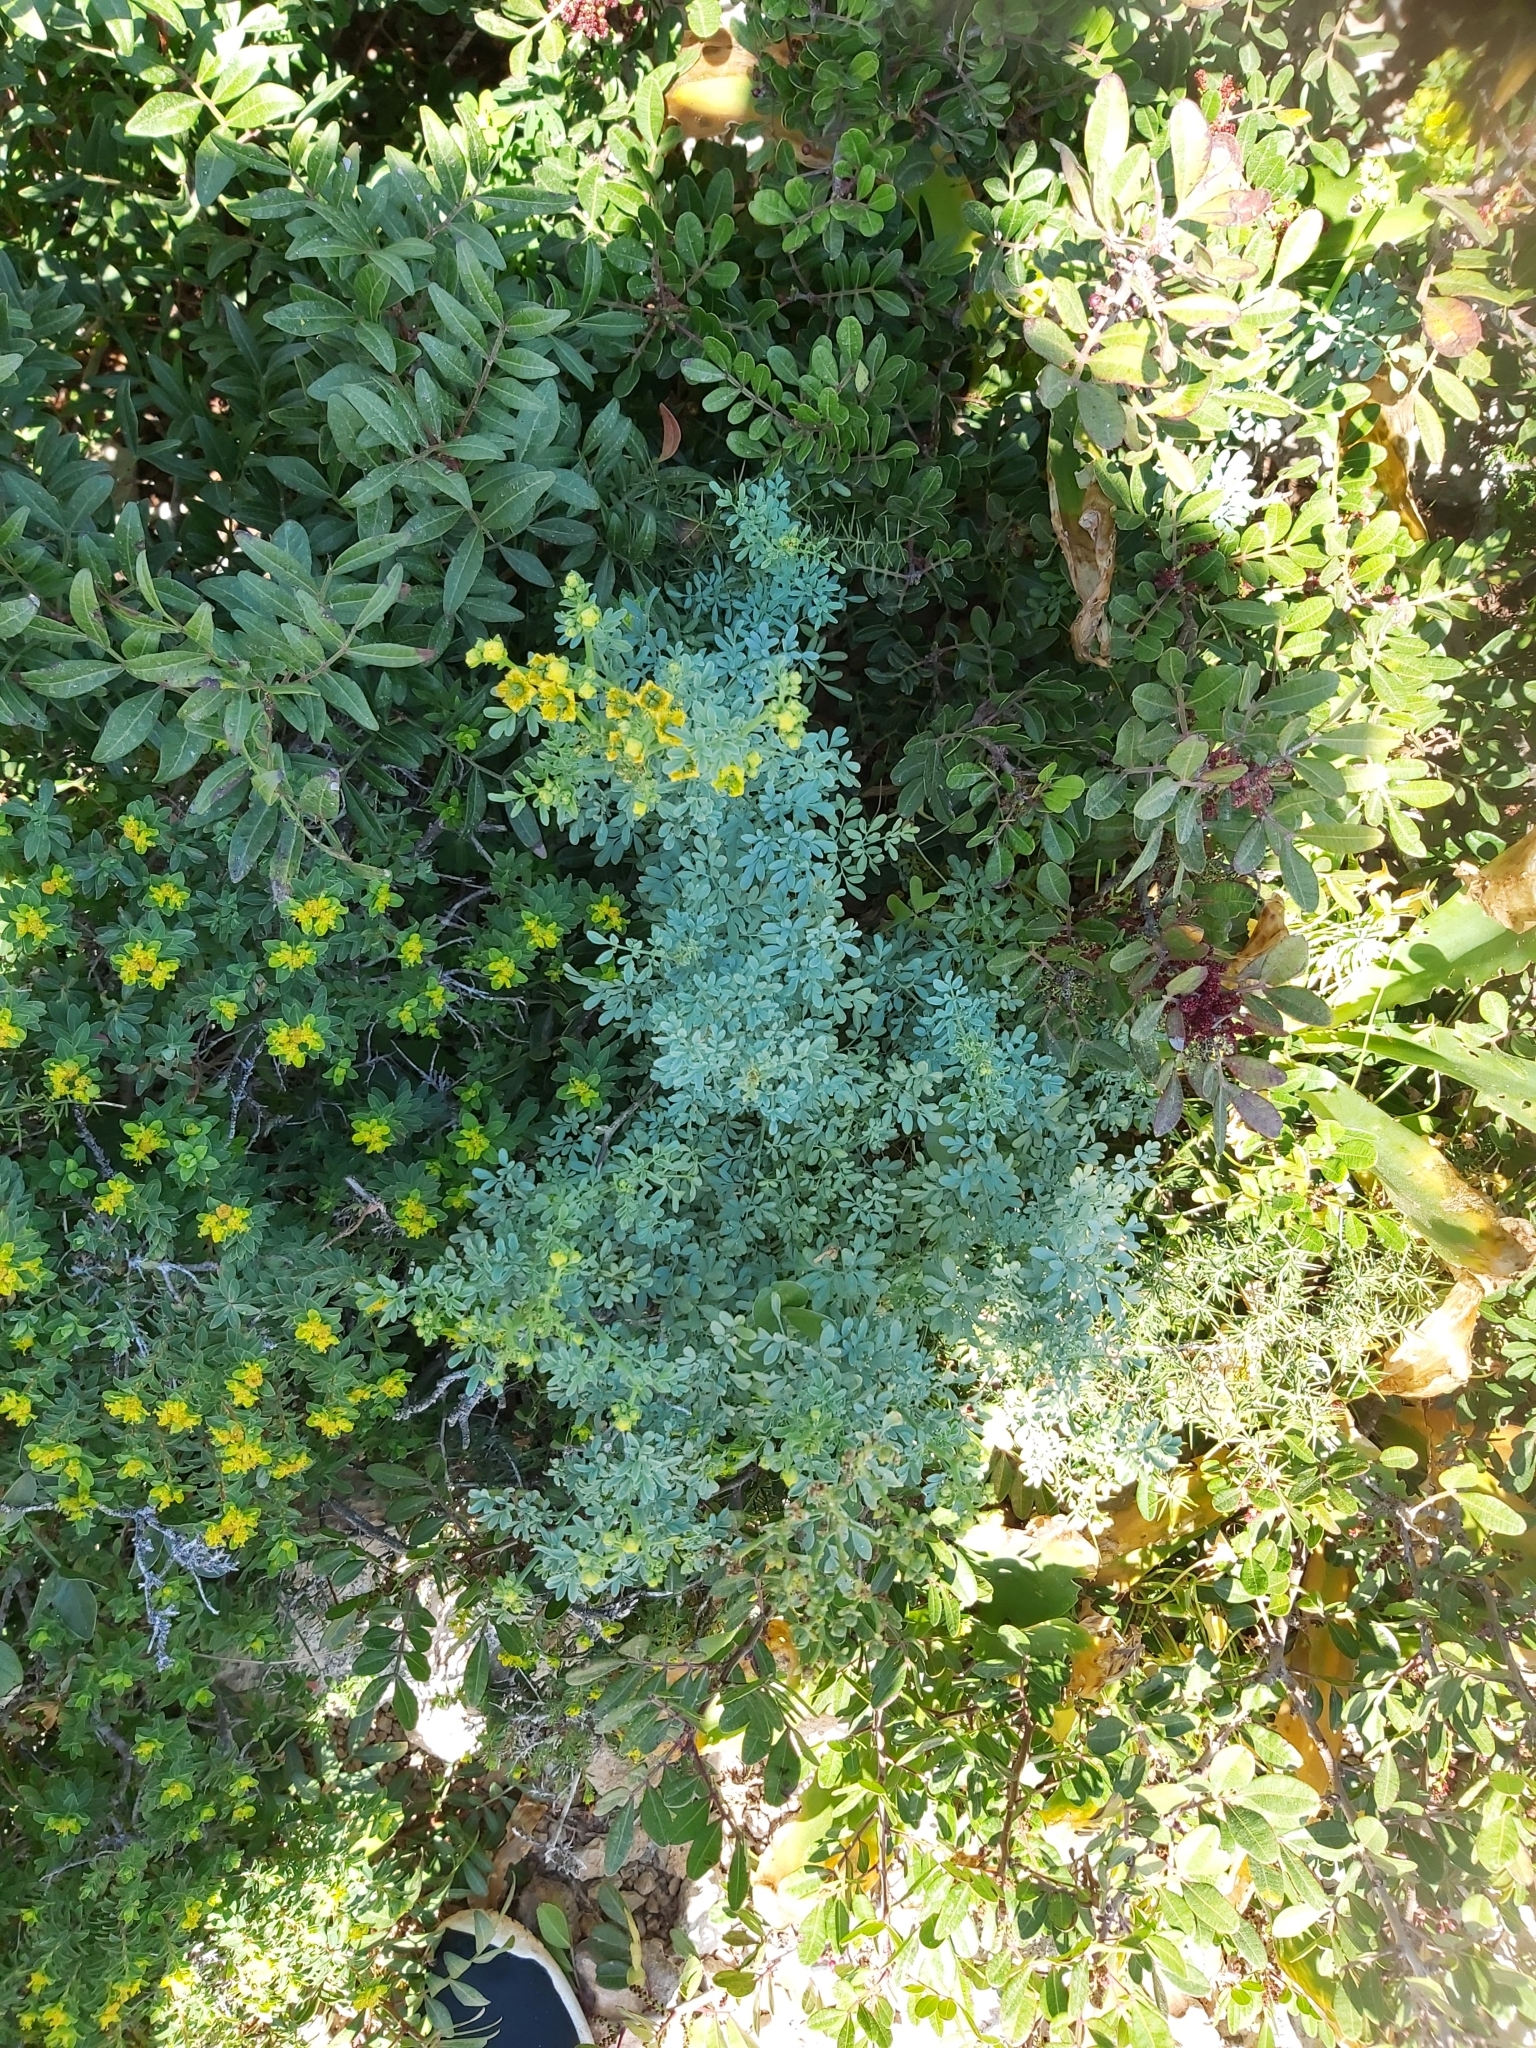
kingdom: Plantae
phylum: Tracheophyta
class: Magnoliopsida
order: Sapindales
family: Rutaceae
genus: Ruta
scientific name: Ruta chalepensis
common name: Fringed rue
